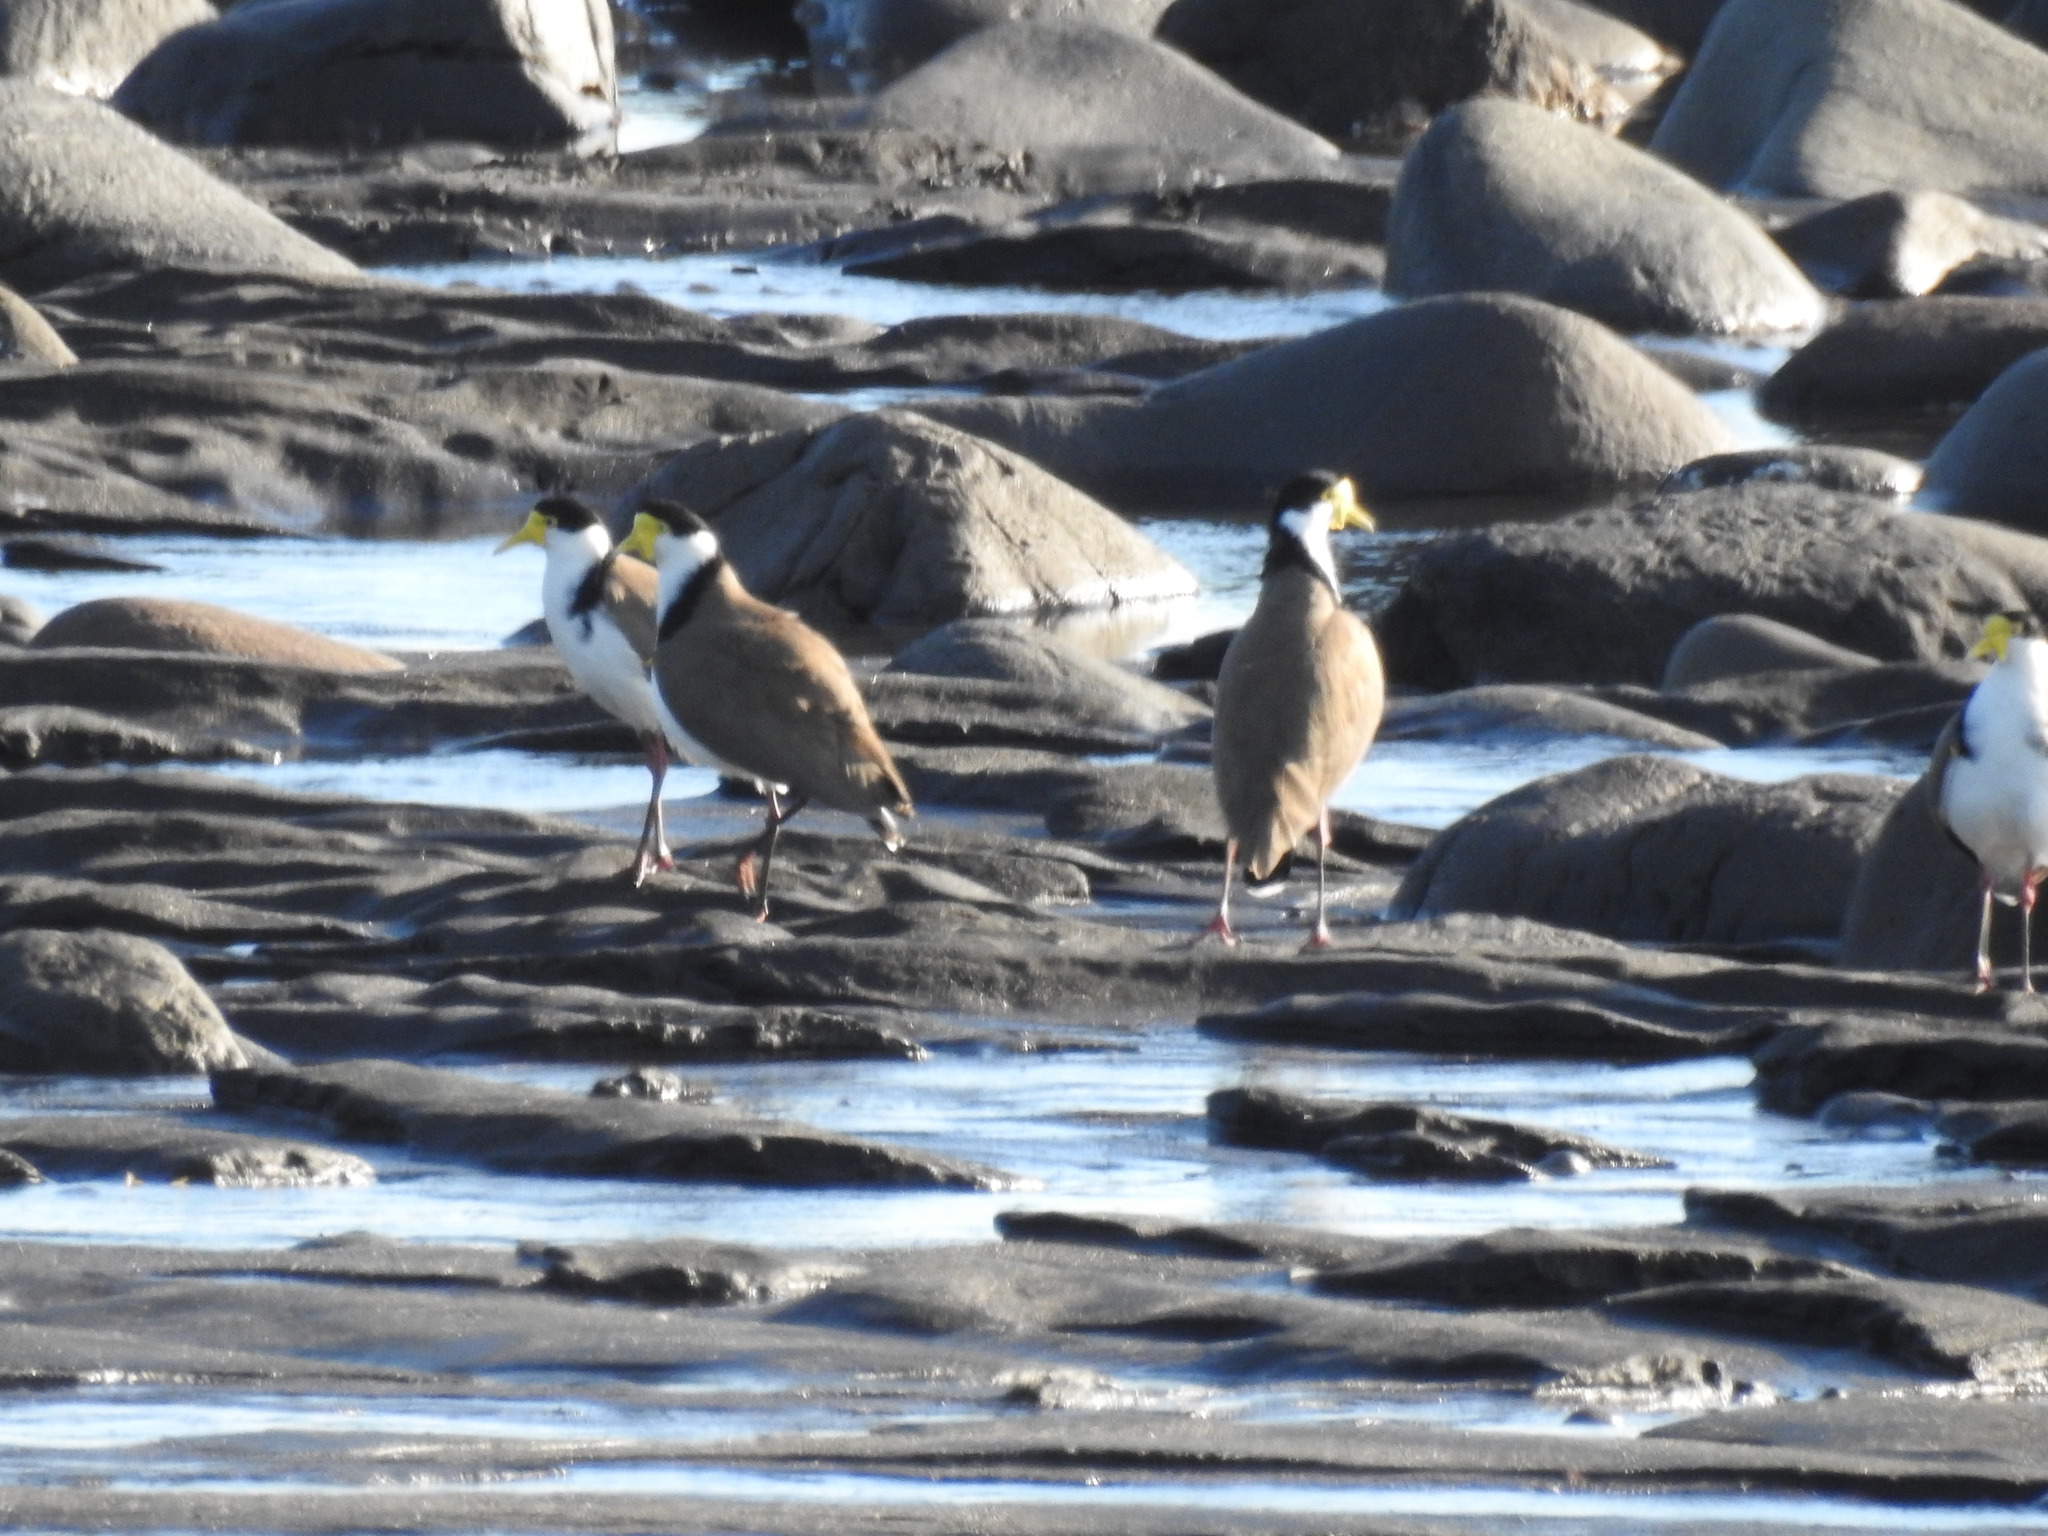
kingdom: Animalia
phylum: Chordata
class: Aves
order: Charadriiformes
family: Charadriidae
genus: Vanellus
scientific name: Vanellus miles
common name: Masked lapwing
